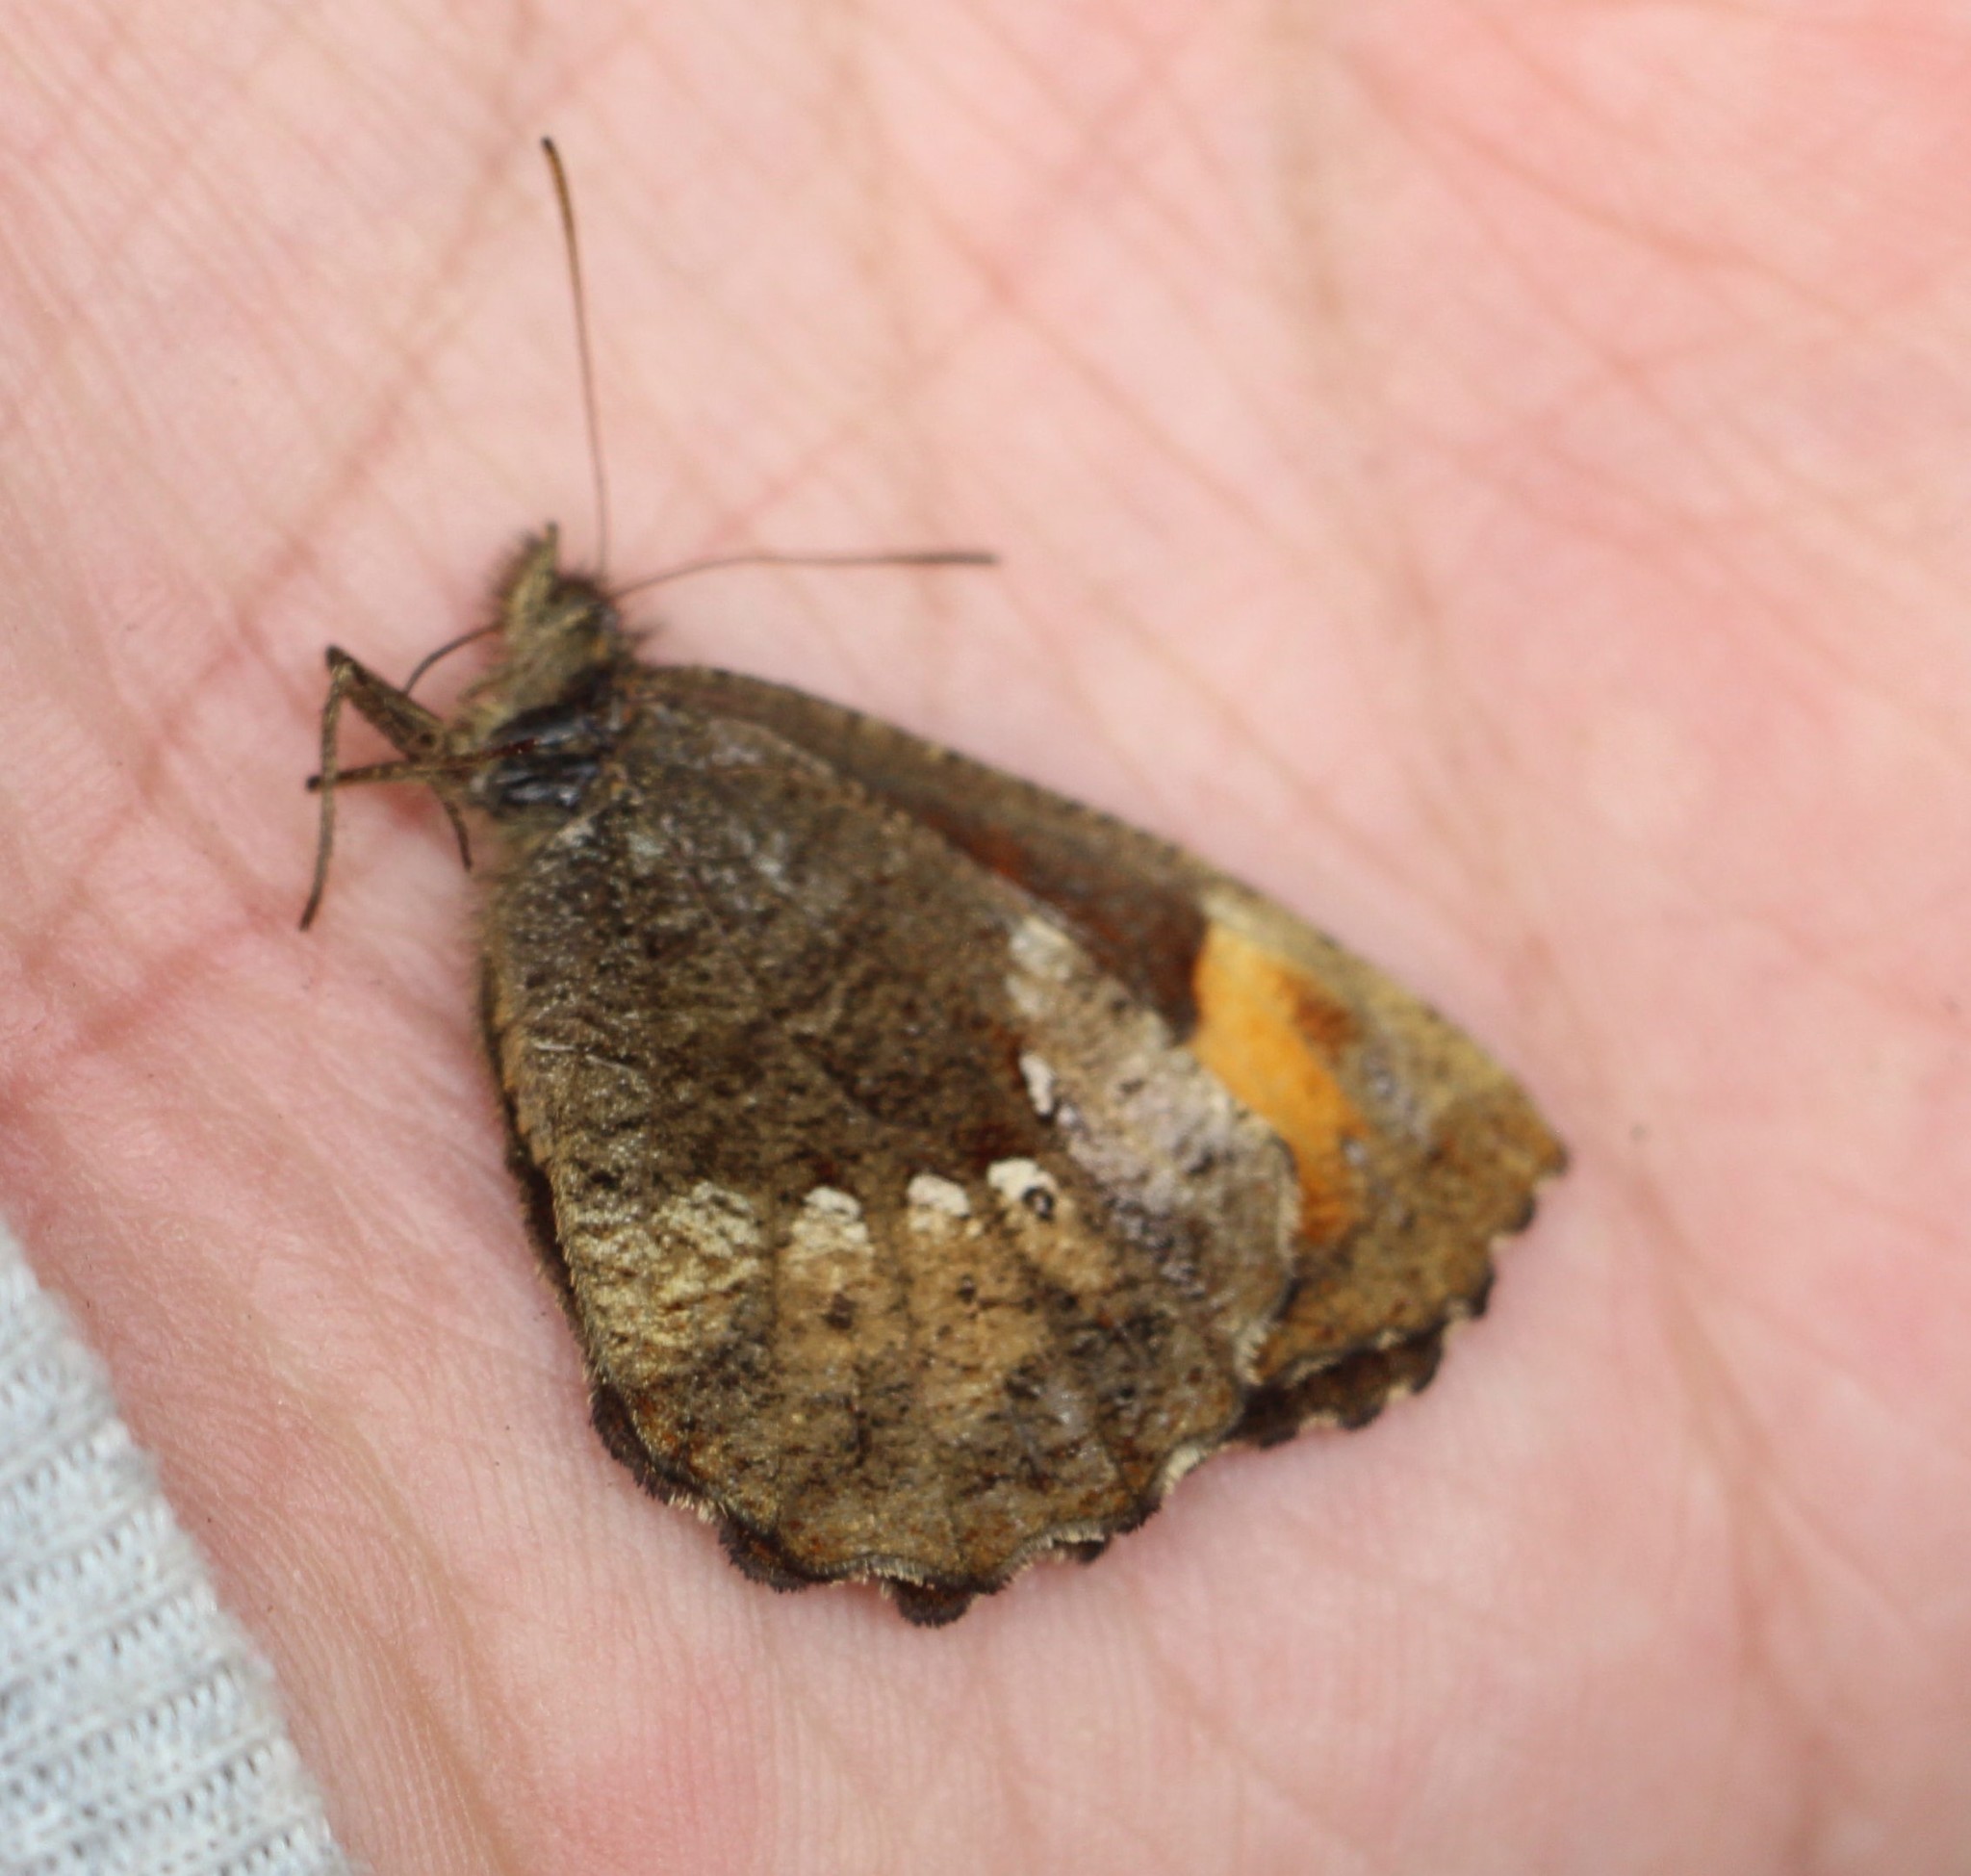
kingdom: Animalia
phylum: Arthropoda
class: Insecta
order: Lepidoptera
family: Nymphalidae
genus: Pedaliodes
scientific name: Pedaliodes
